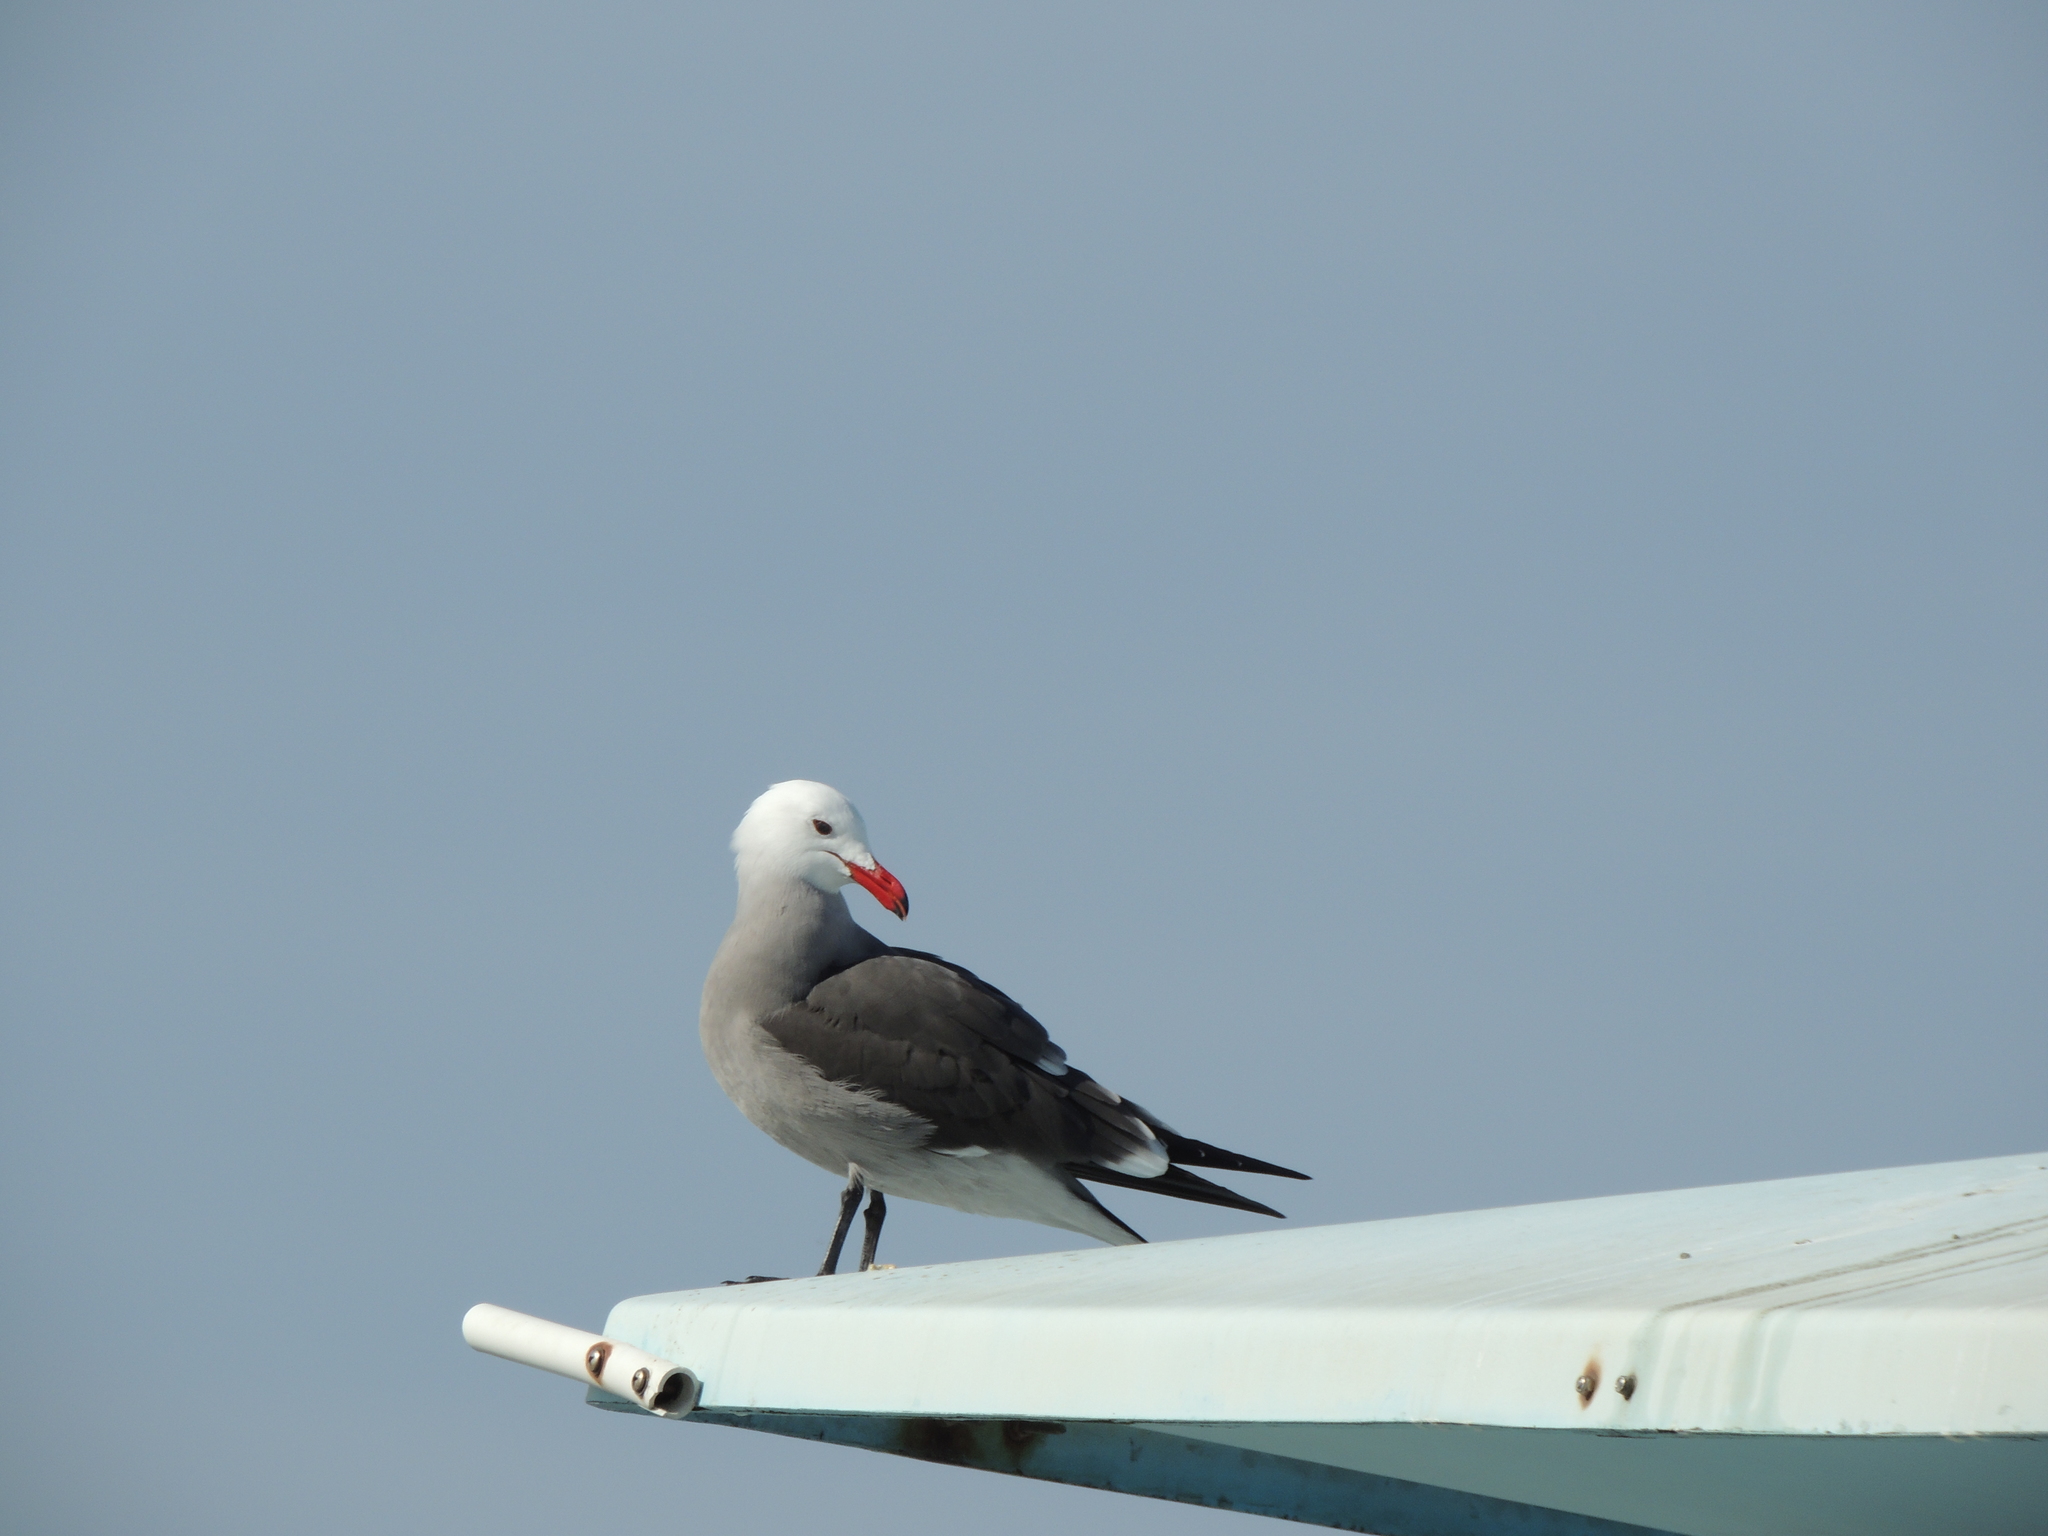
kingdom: Animalia
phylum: Chordata
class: Aves
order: Charadriiformes
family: Laridae
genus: Larus
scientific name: Larus heermanni
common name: Heermann's gull
